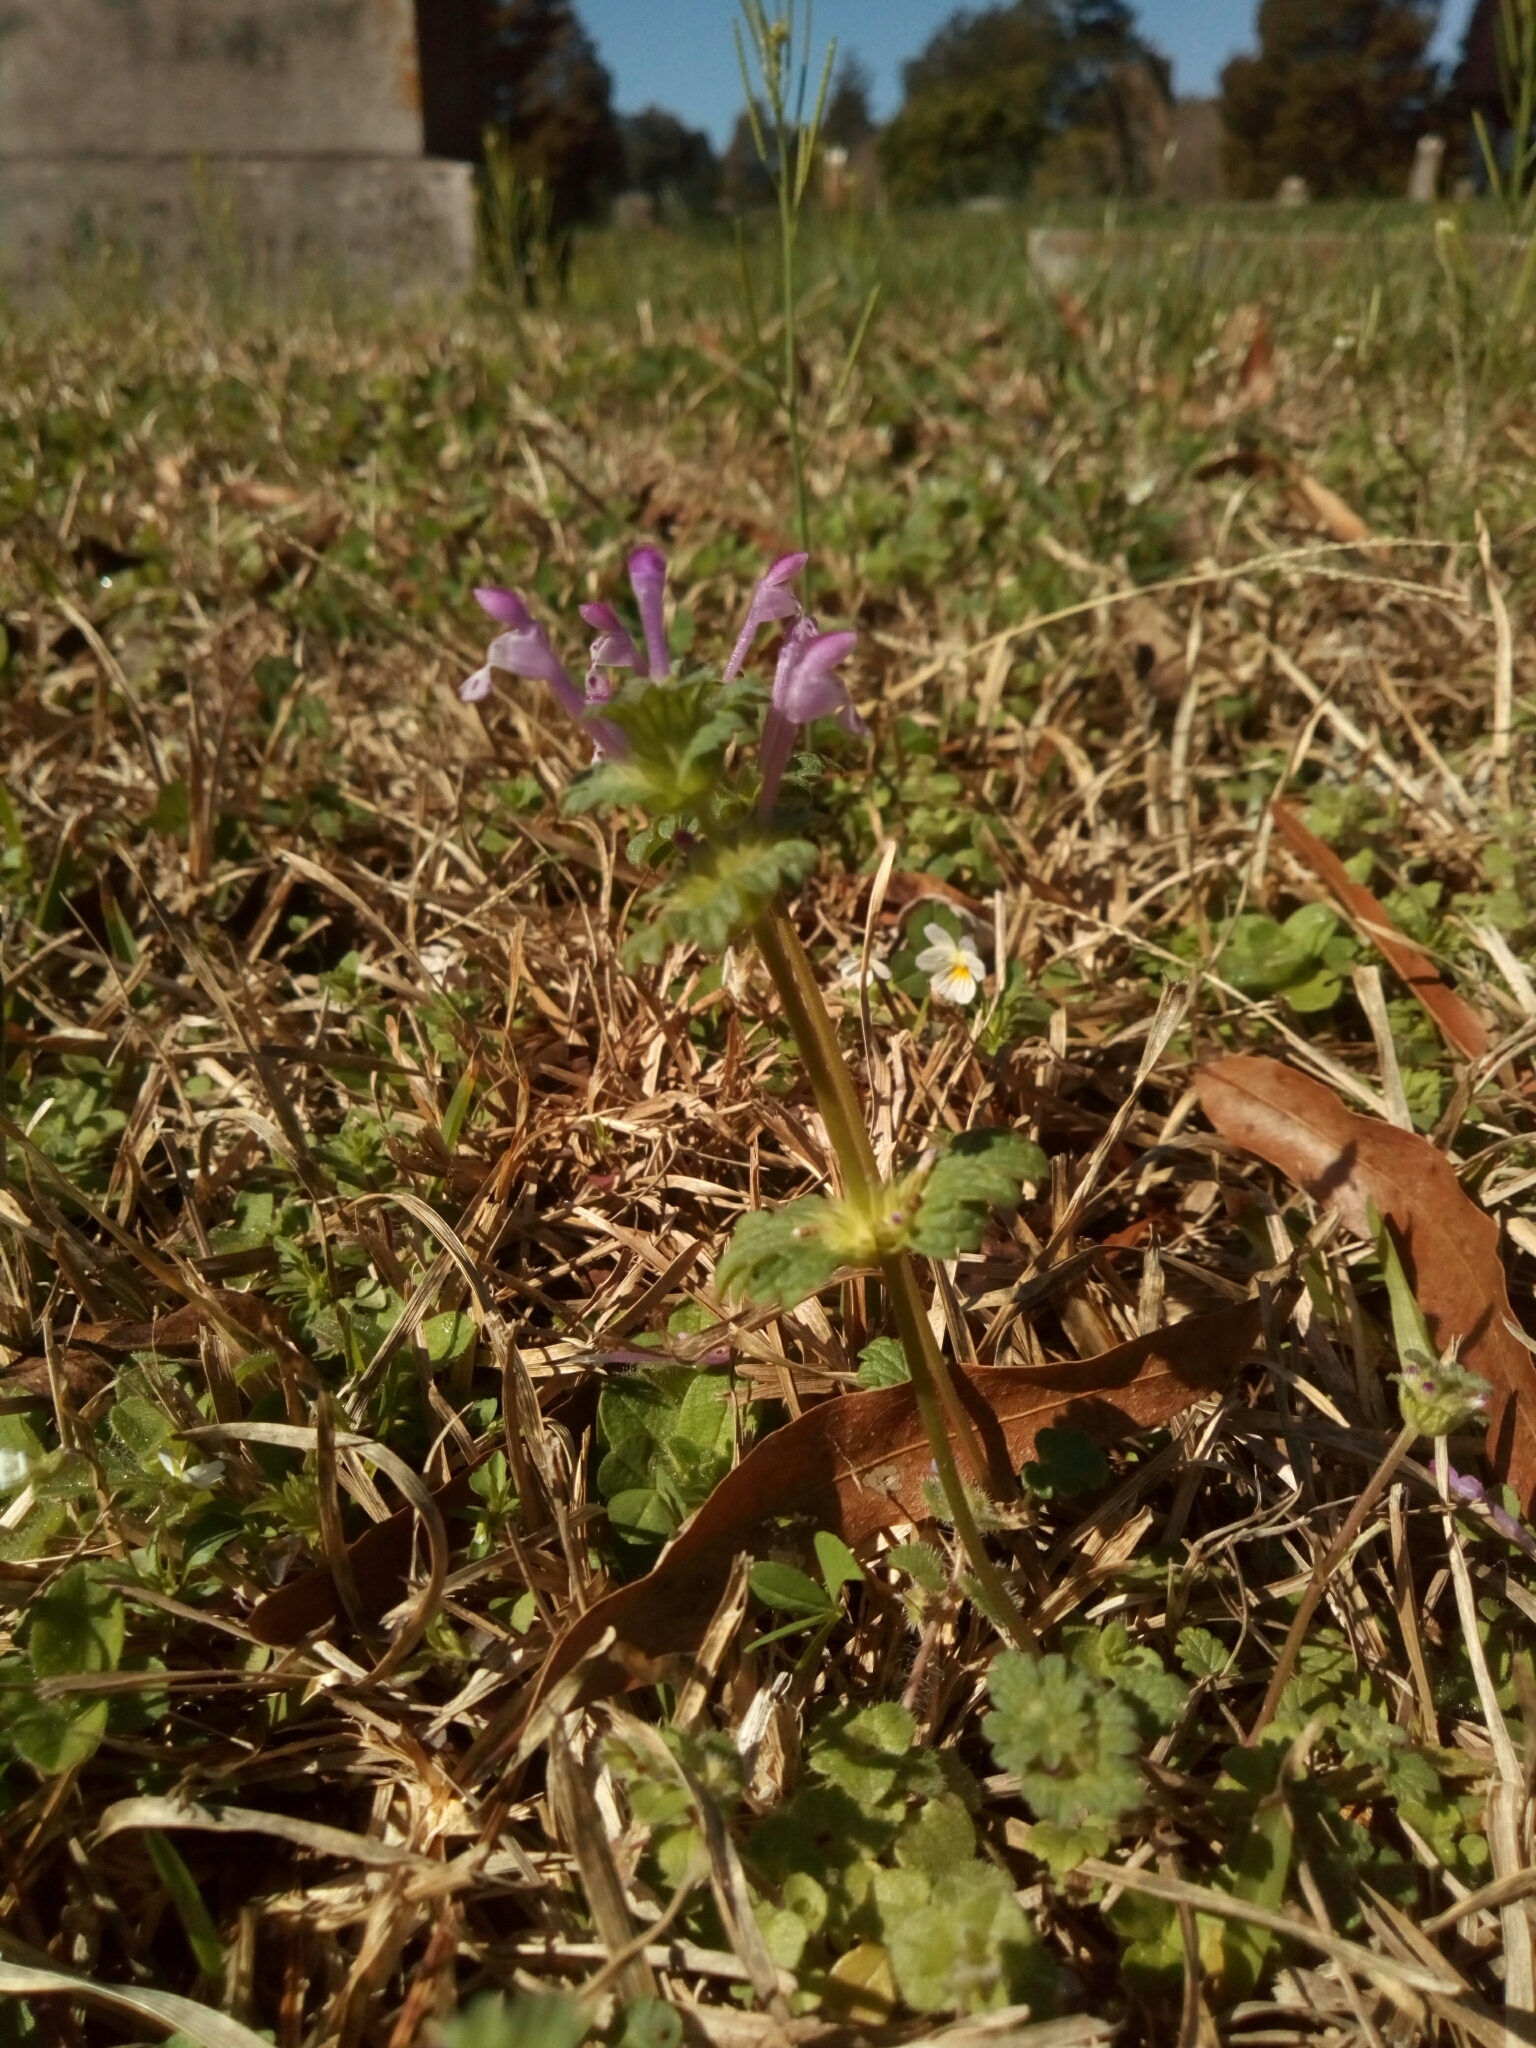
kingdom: Plantae
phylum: Tracheophyta
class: Magnoliopsida
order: Lamiales
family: Lamiaceae
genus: Lamium
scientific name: Lamium amplexicaule
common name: Henbit dead-nettle
